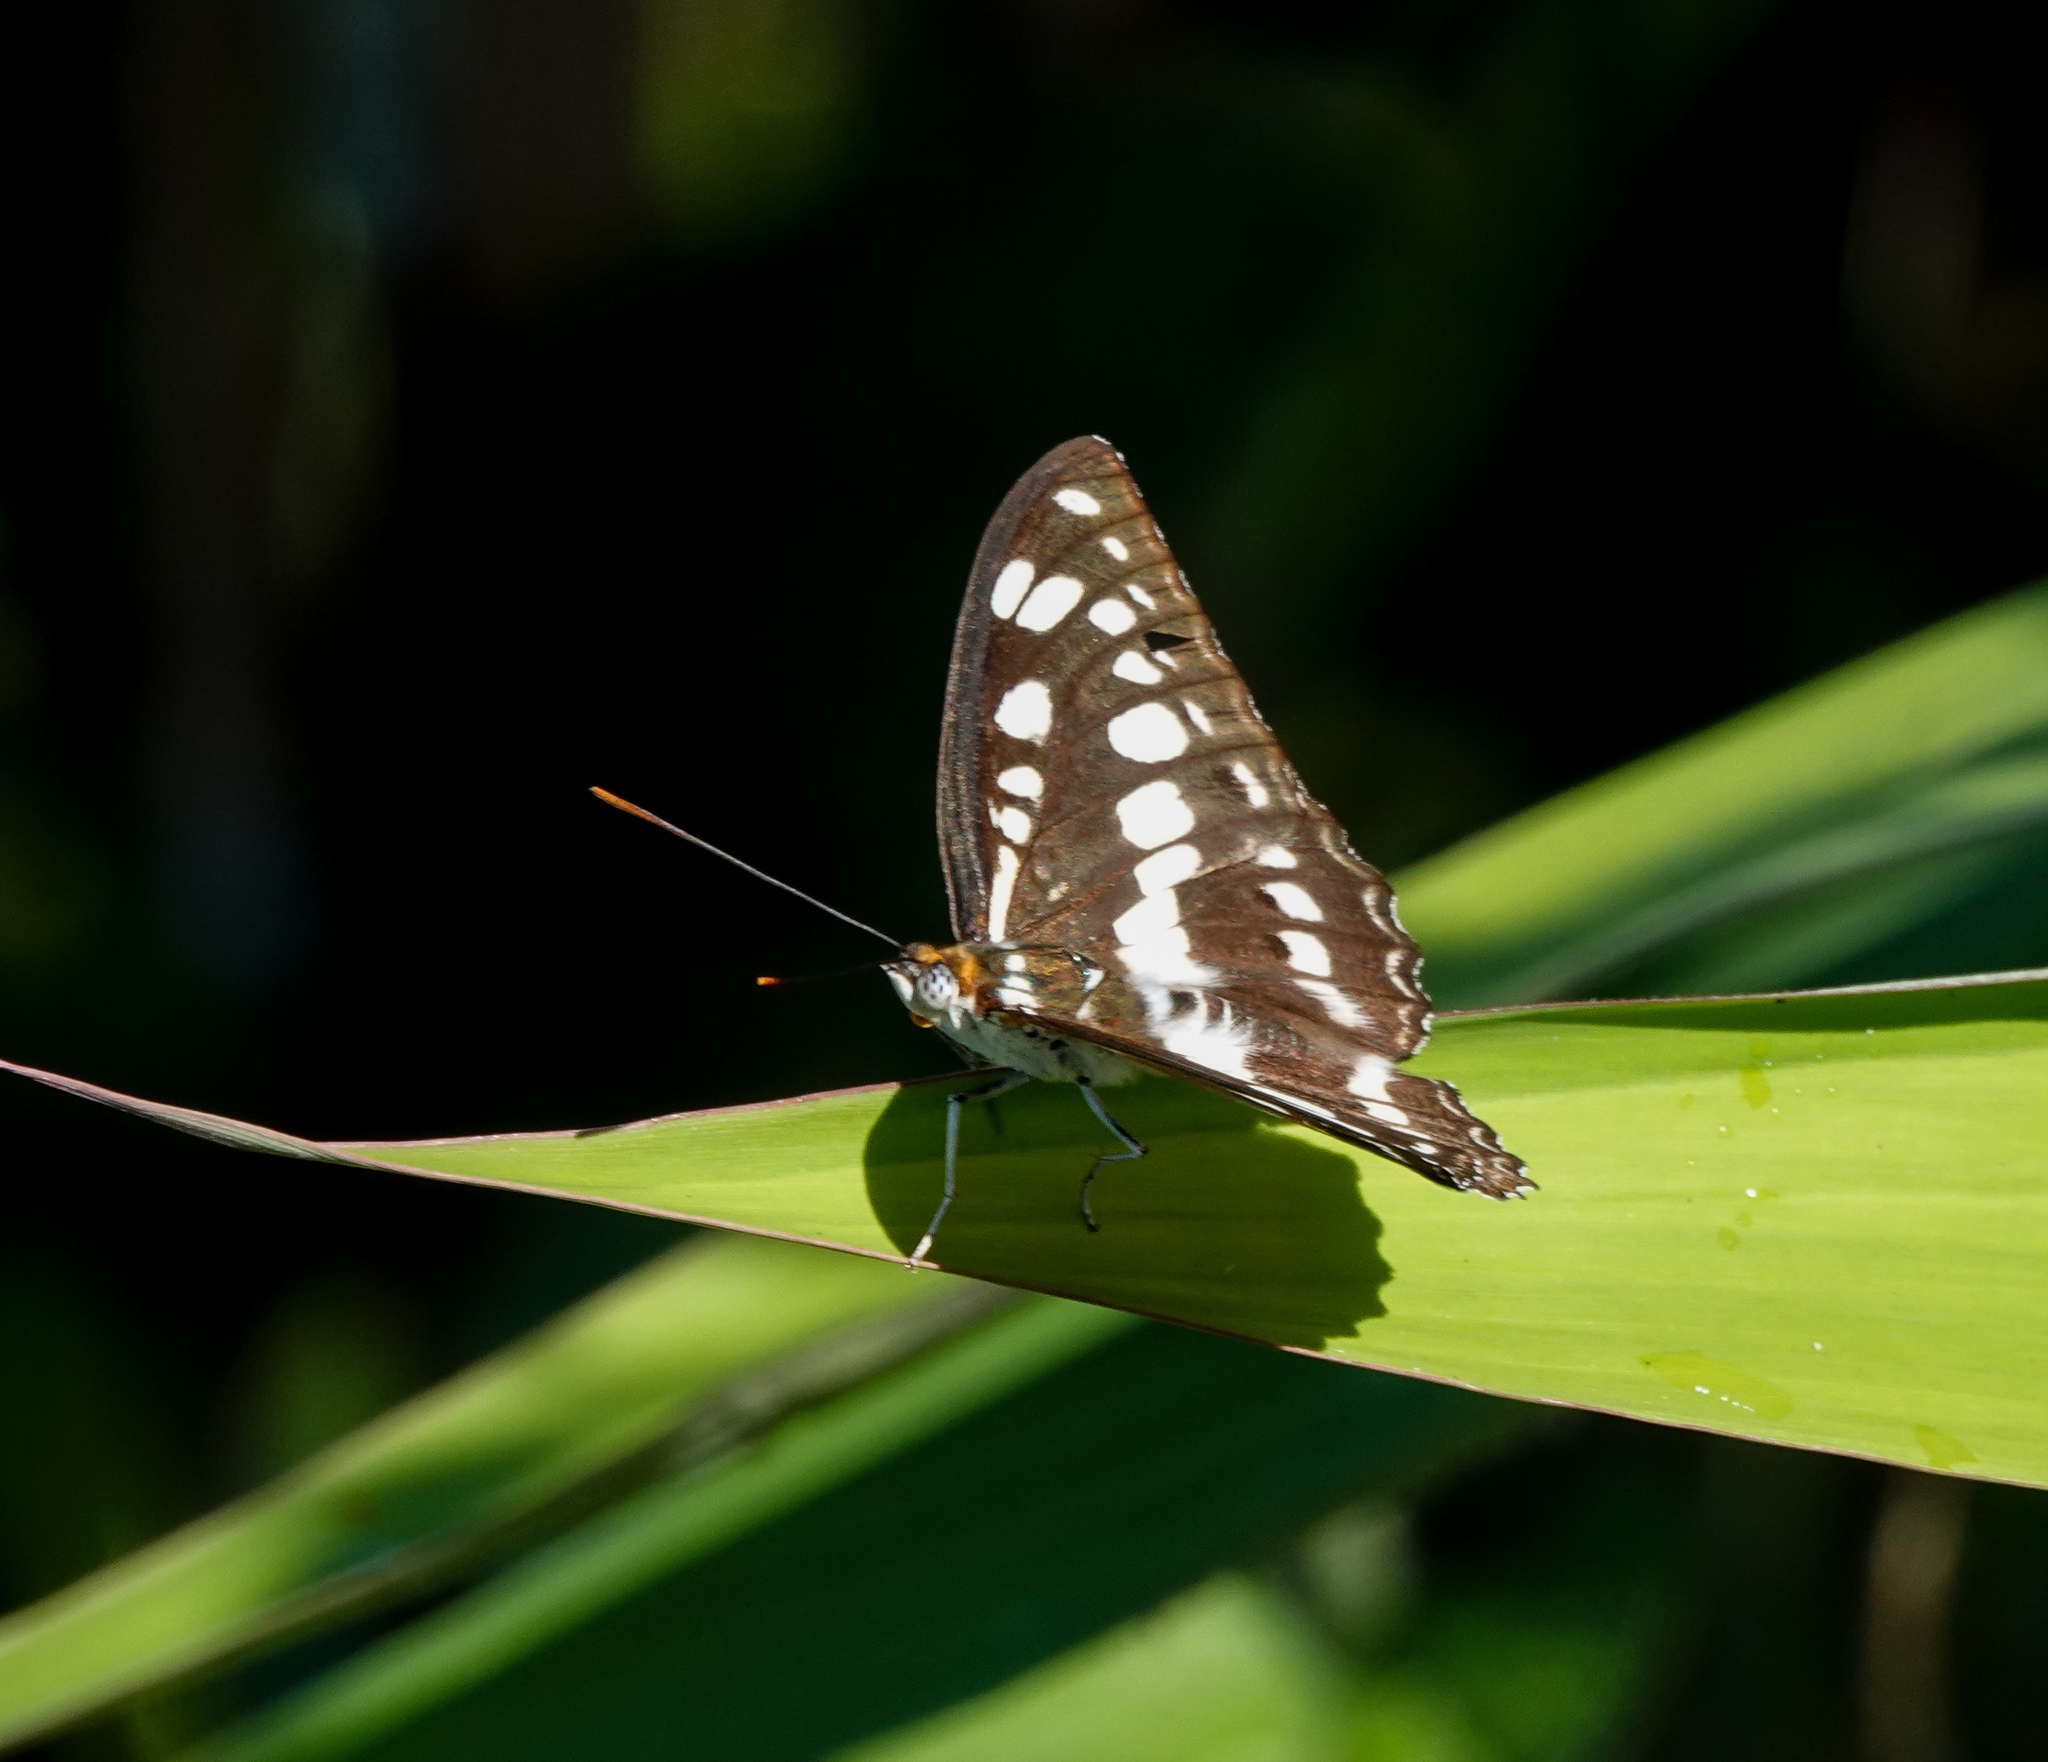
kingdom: Animalia
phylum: Arthropoda
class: Insecta
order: Lepidoptera
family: Nymphalidae
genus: Parathyma
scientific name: Parathyma perius
